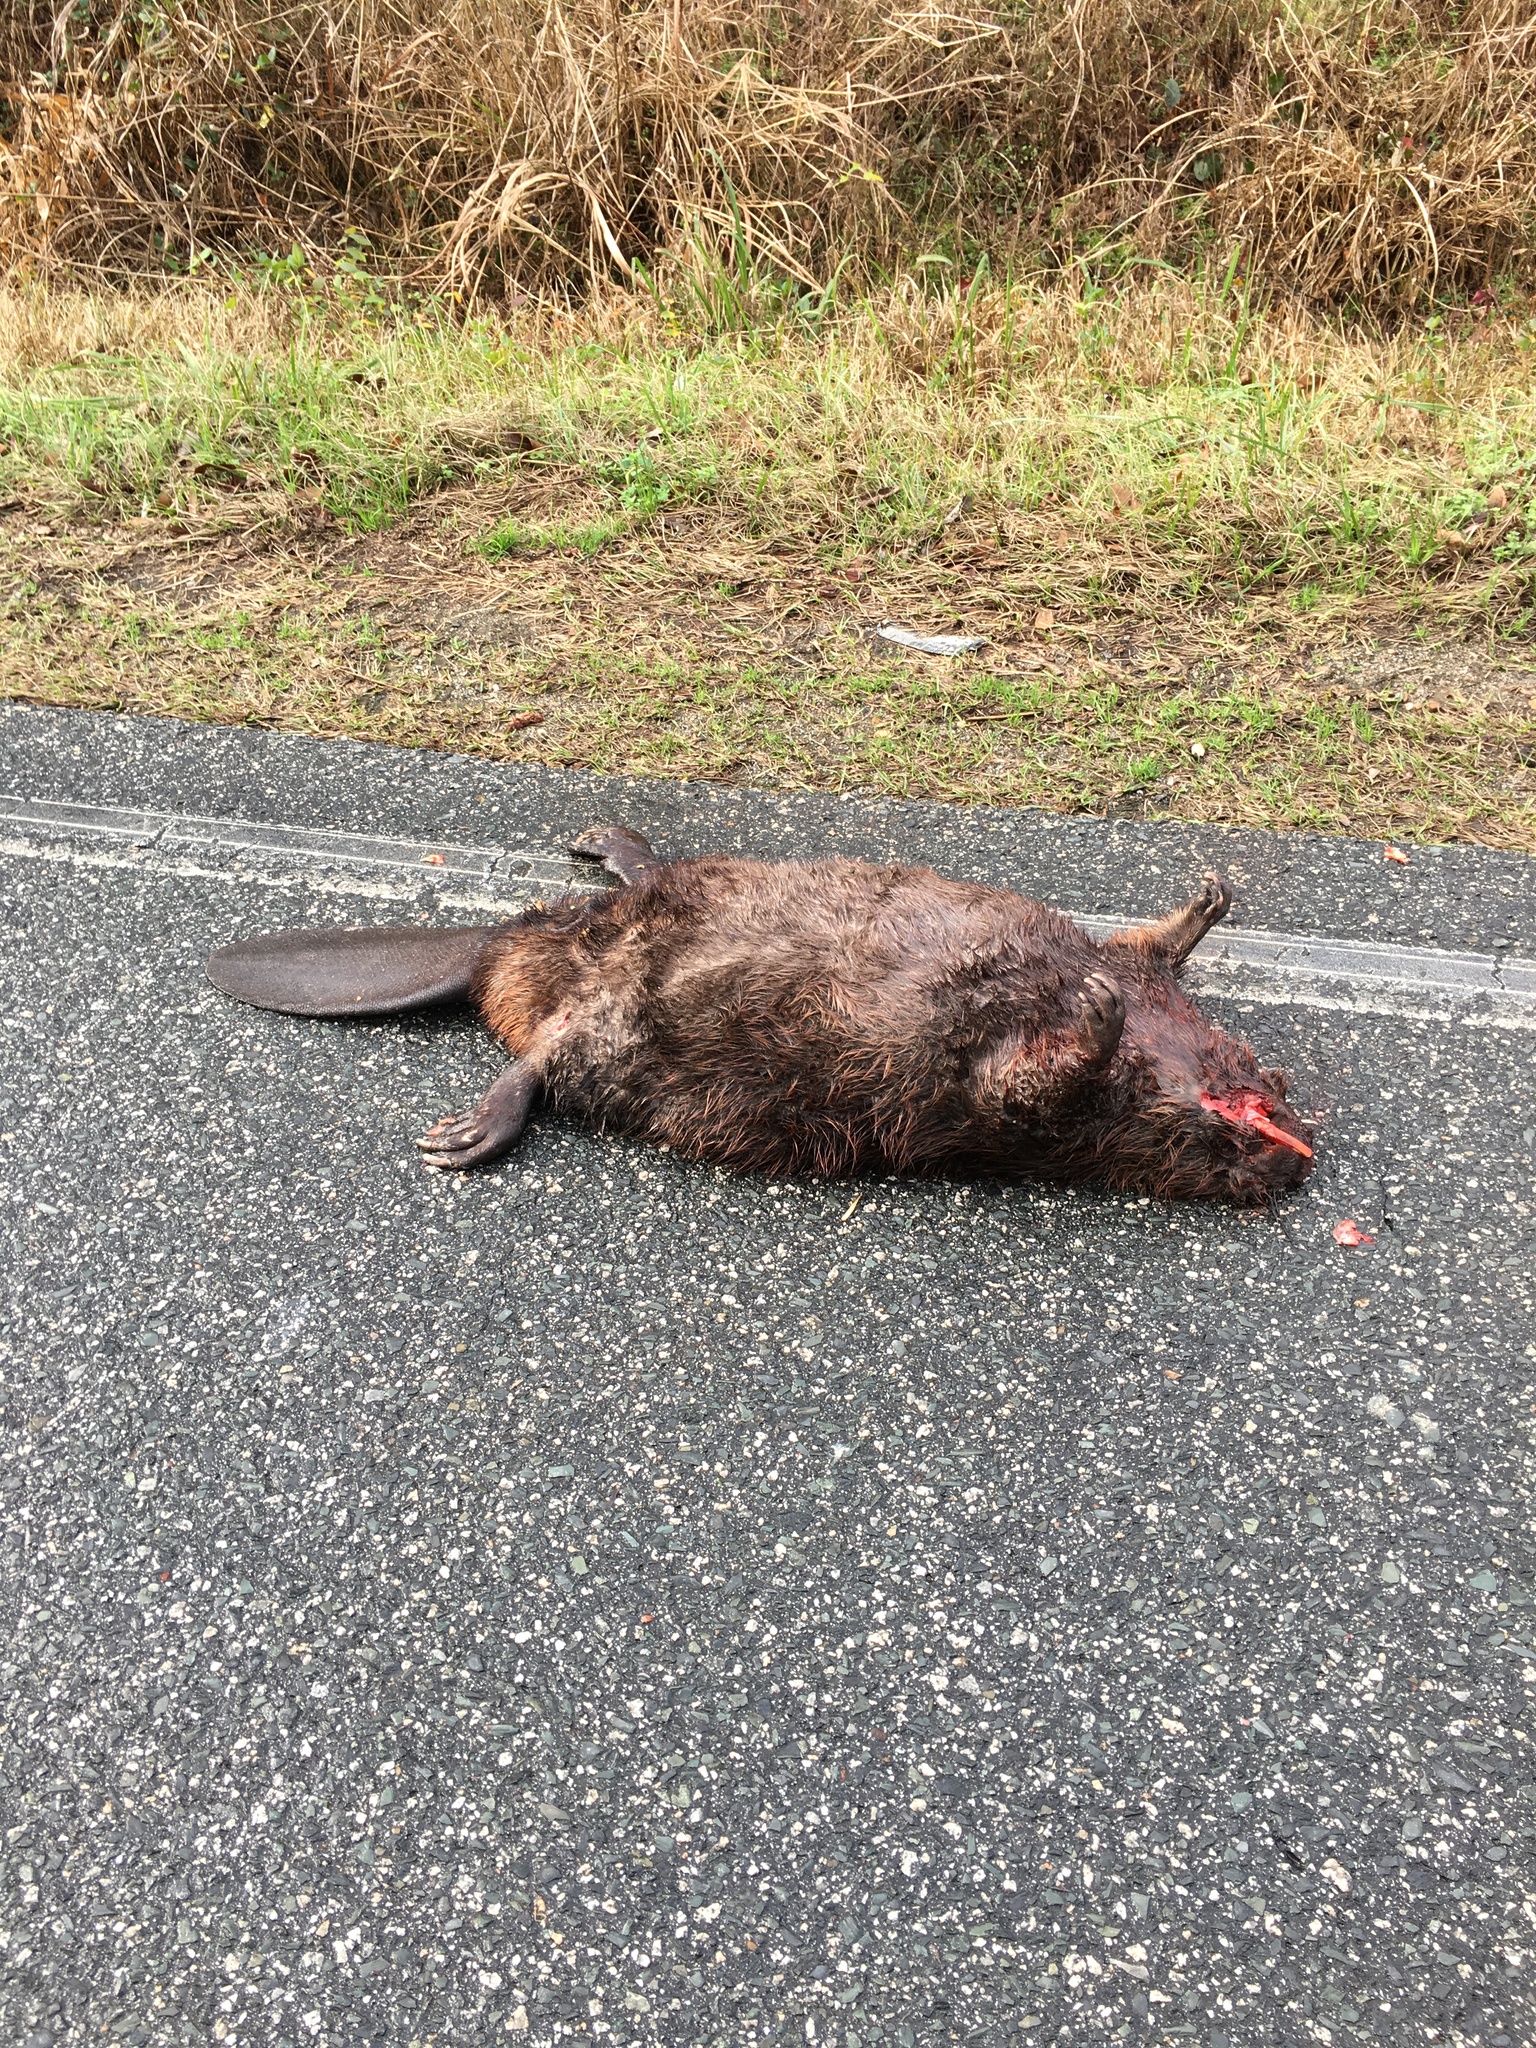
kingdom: Animalia
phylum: Chordata
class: Mammalia
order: Rodentia
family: Castoridae
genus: Castor
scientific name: Castor canadensis
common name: American beaver
